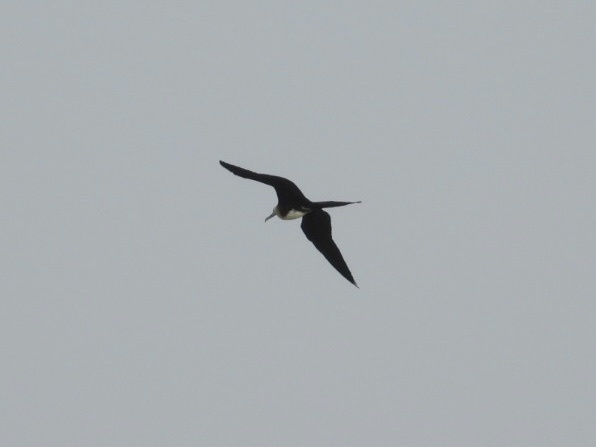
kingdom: Animalia
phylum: Chordata
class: Aves
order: Suliformes
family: Fregatidae
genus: Fregata
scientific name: Fregata magnificens
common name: Magnificent frigatebird
